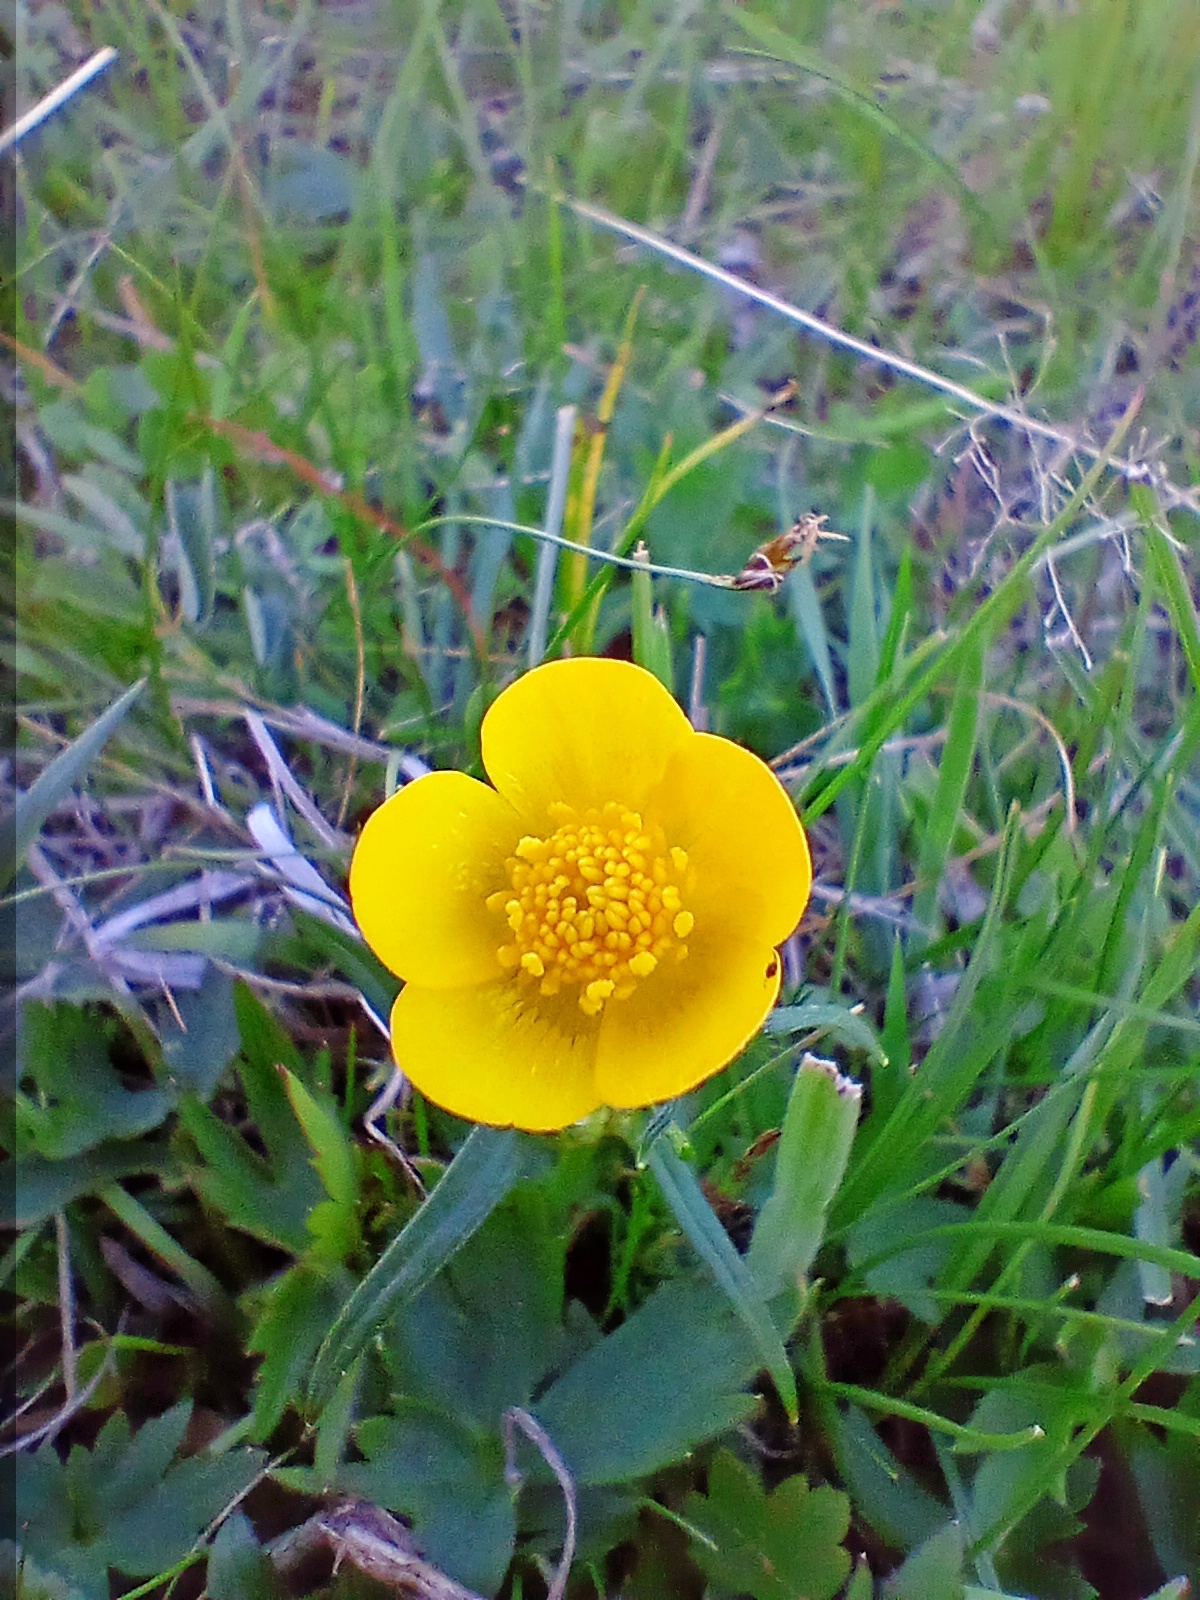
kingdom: Plantae
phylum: Tracheophyta
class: Magnoliopsida
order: Ranunculales
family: Ranunculaceae
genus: Ranunculus
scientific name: Ranunculus propinquus
